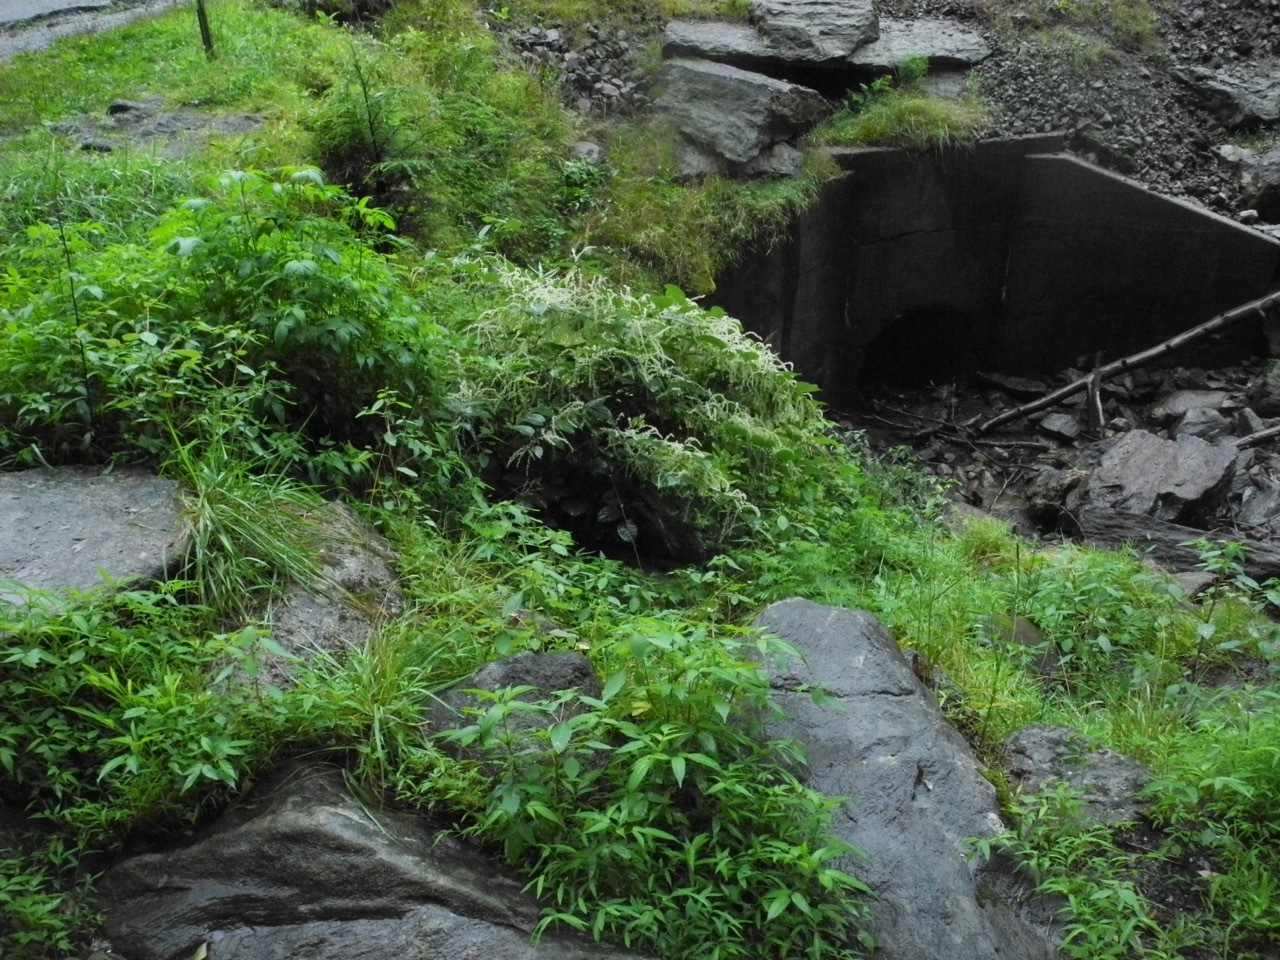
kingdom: Plantae
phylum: Tracheophyta
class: Magnoliopsida
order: Caryophyllales
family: Polygonaceae
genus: Reynoutria
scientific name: Reynoutria japonica
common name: Japanese knotweed
